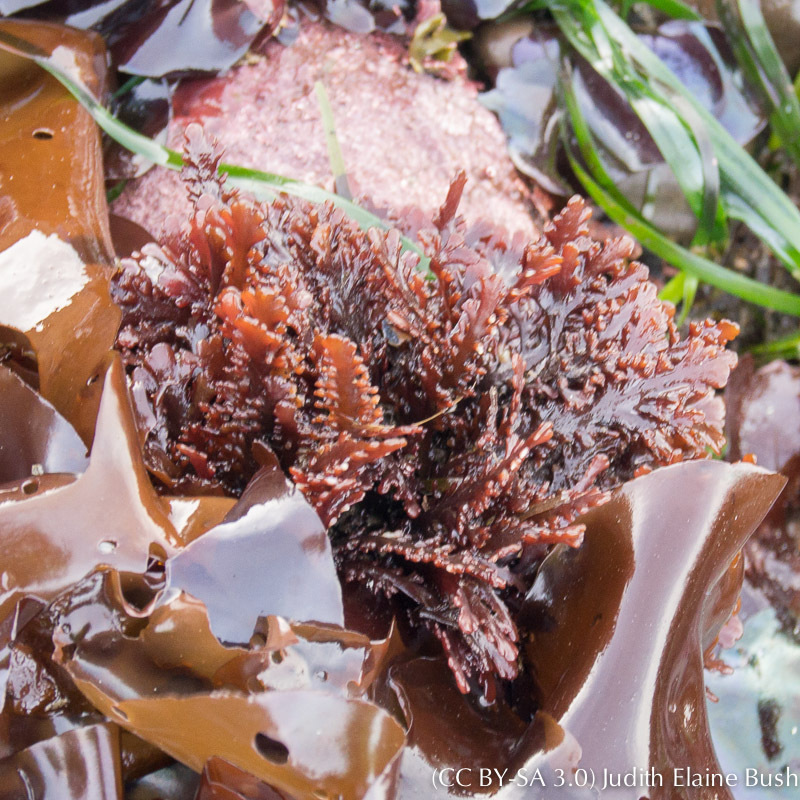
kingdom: Plantae
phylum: Rhodophyta
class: Florideophyceae
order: Ceramiales
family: Rhodomelaceae
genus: Osmundea
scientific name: Osmundea spectabilis
